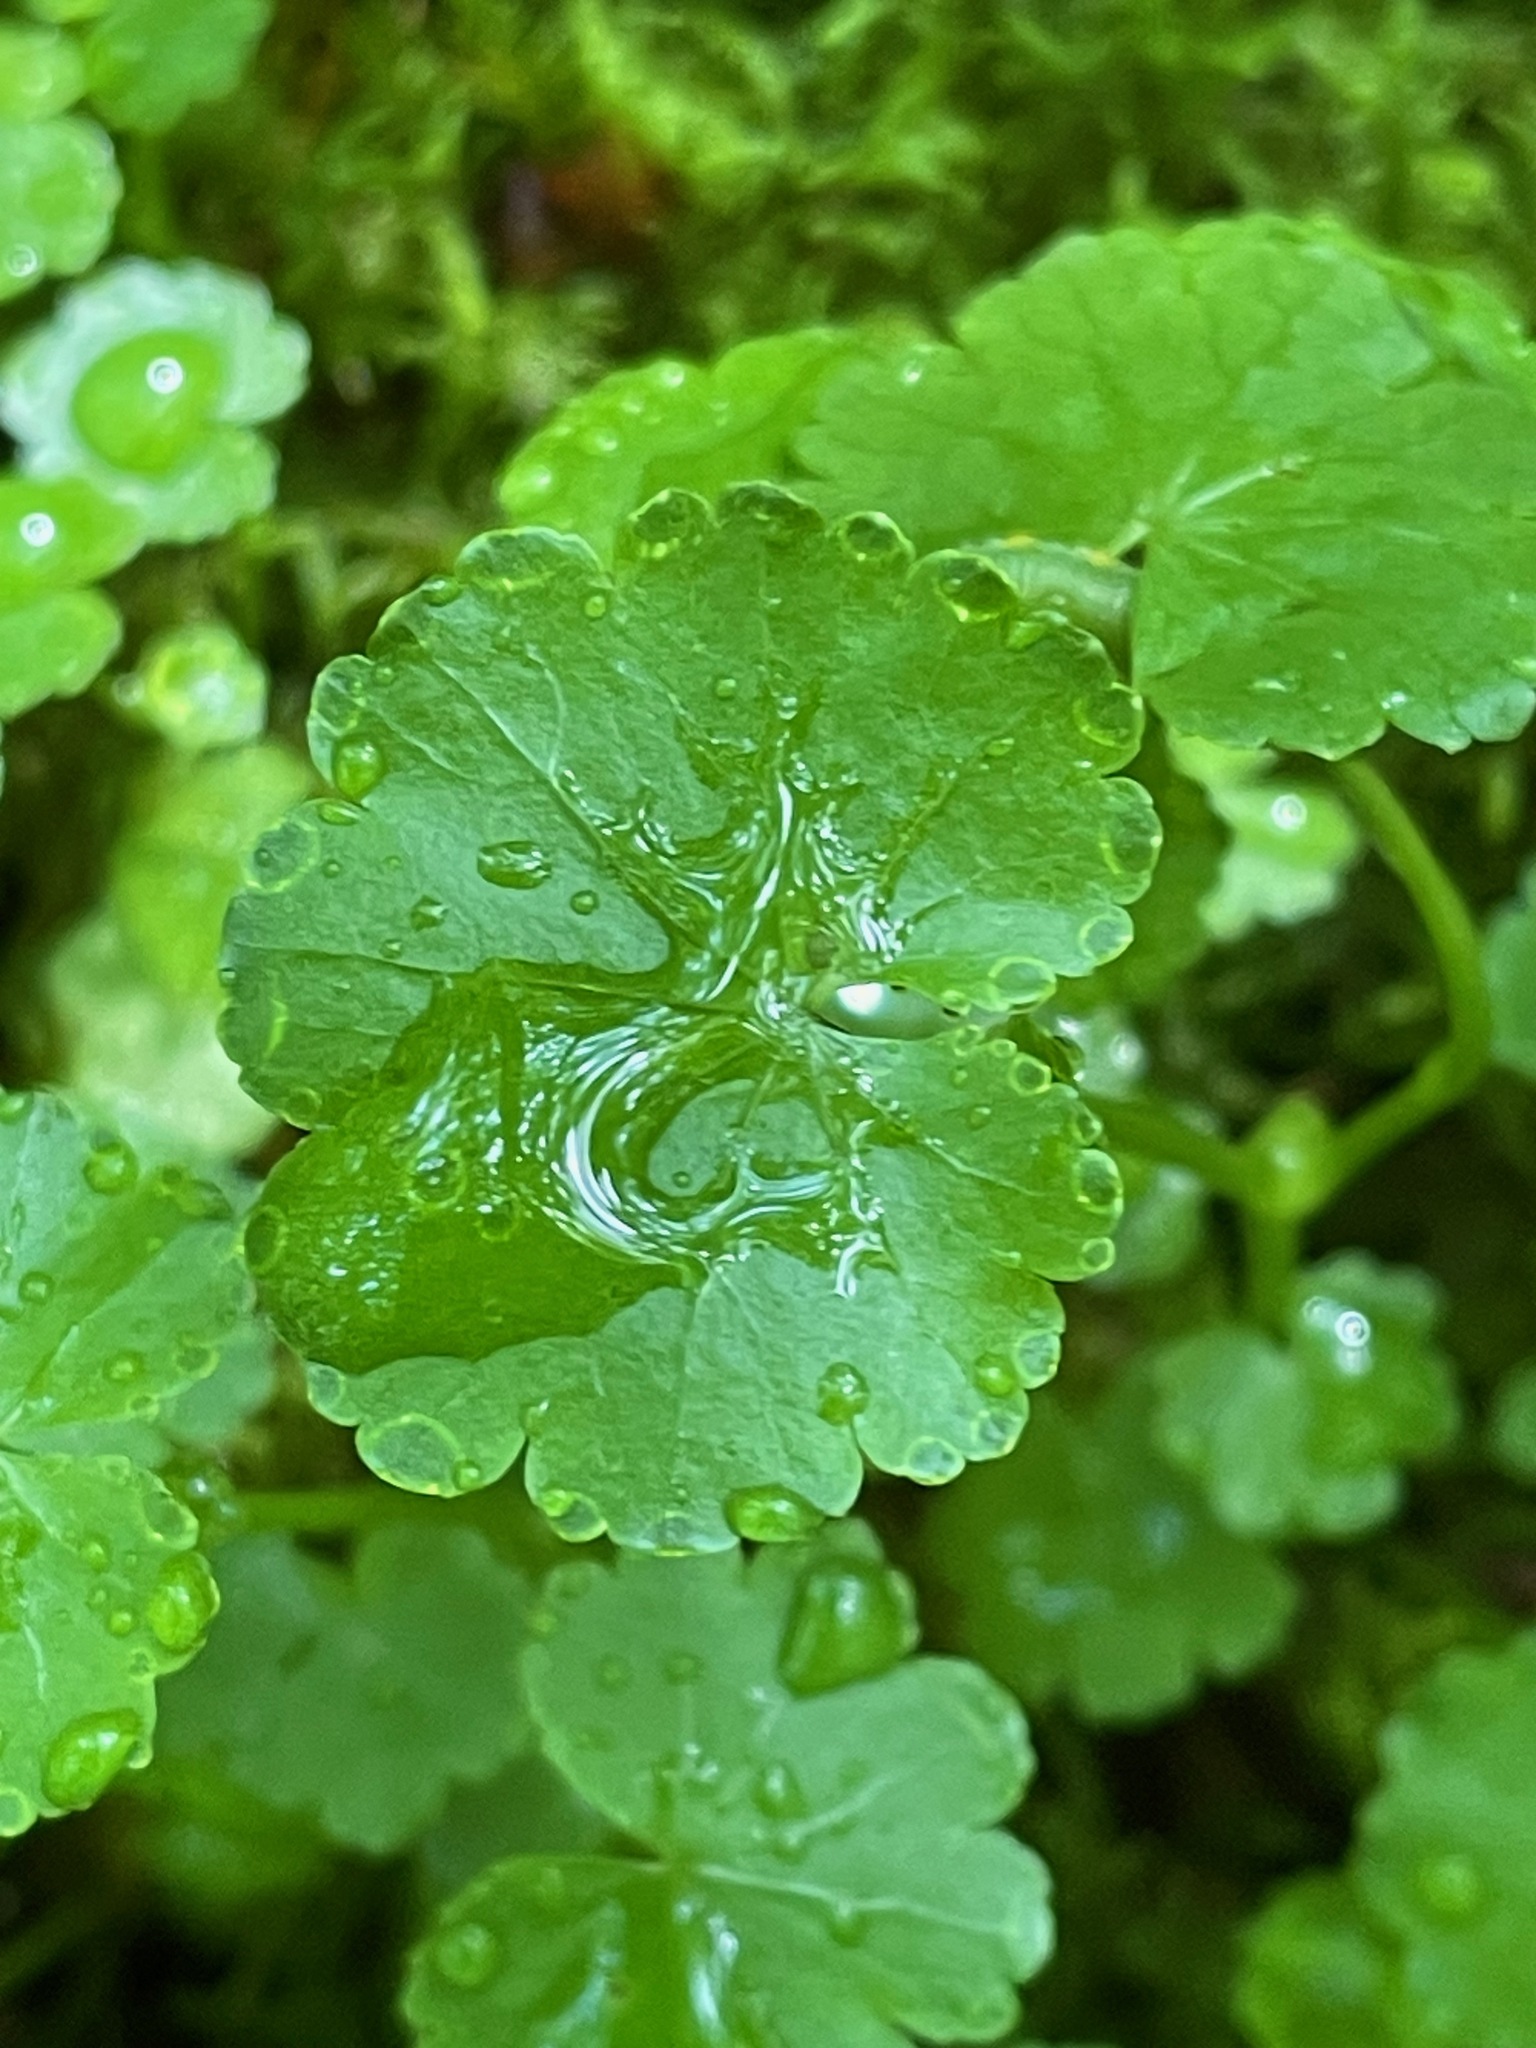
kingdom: Plantae
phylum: Tracheophyta
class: Magnoliopsida
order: Apiales
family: Araliaceae
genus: Hydrocotyle
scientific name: Hydrocotyle americana
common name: American water-pennywort
